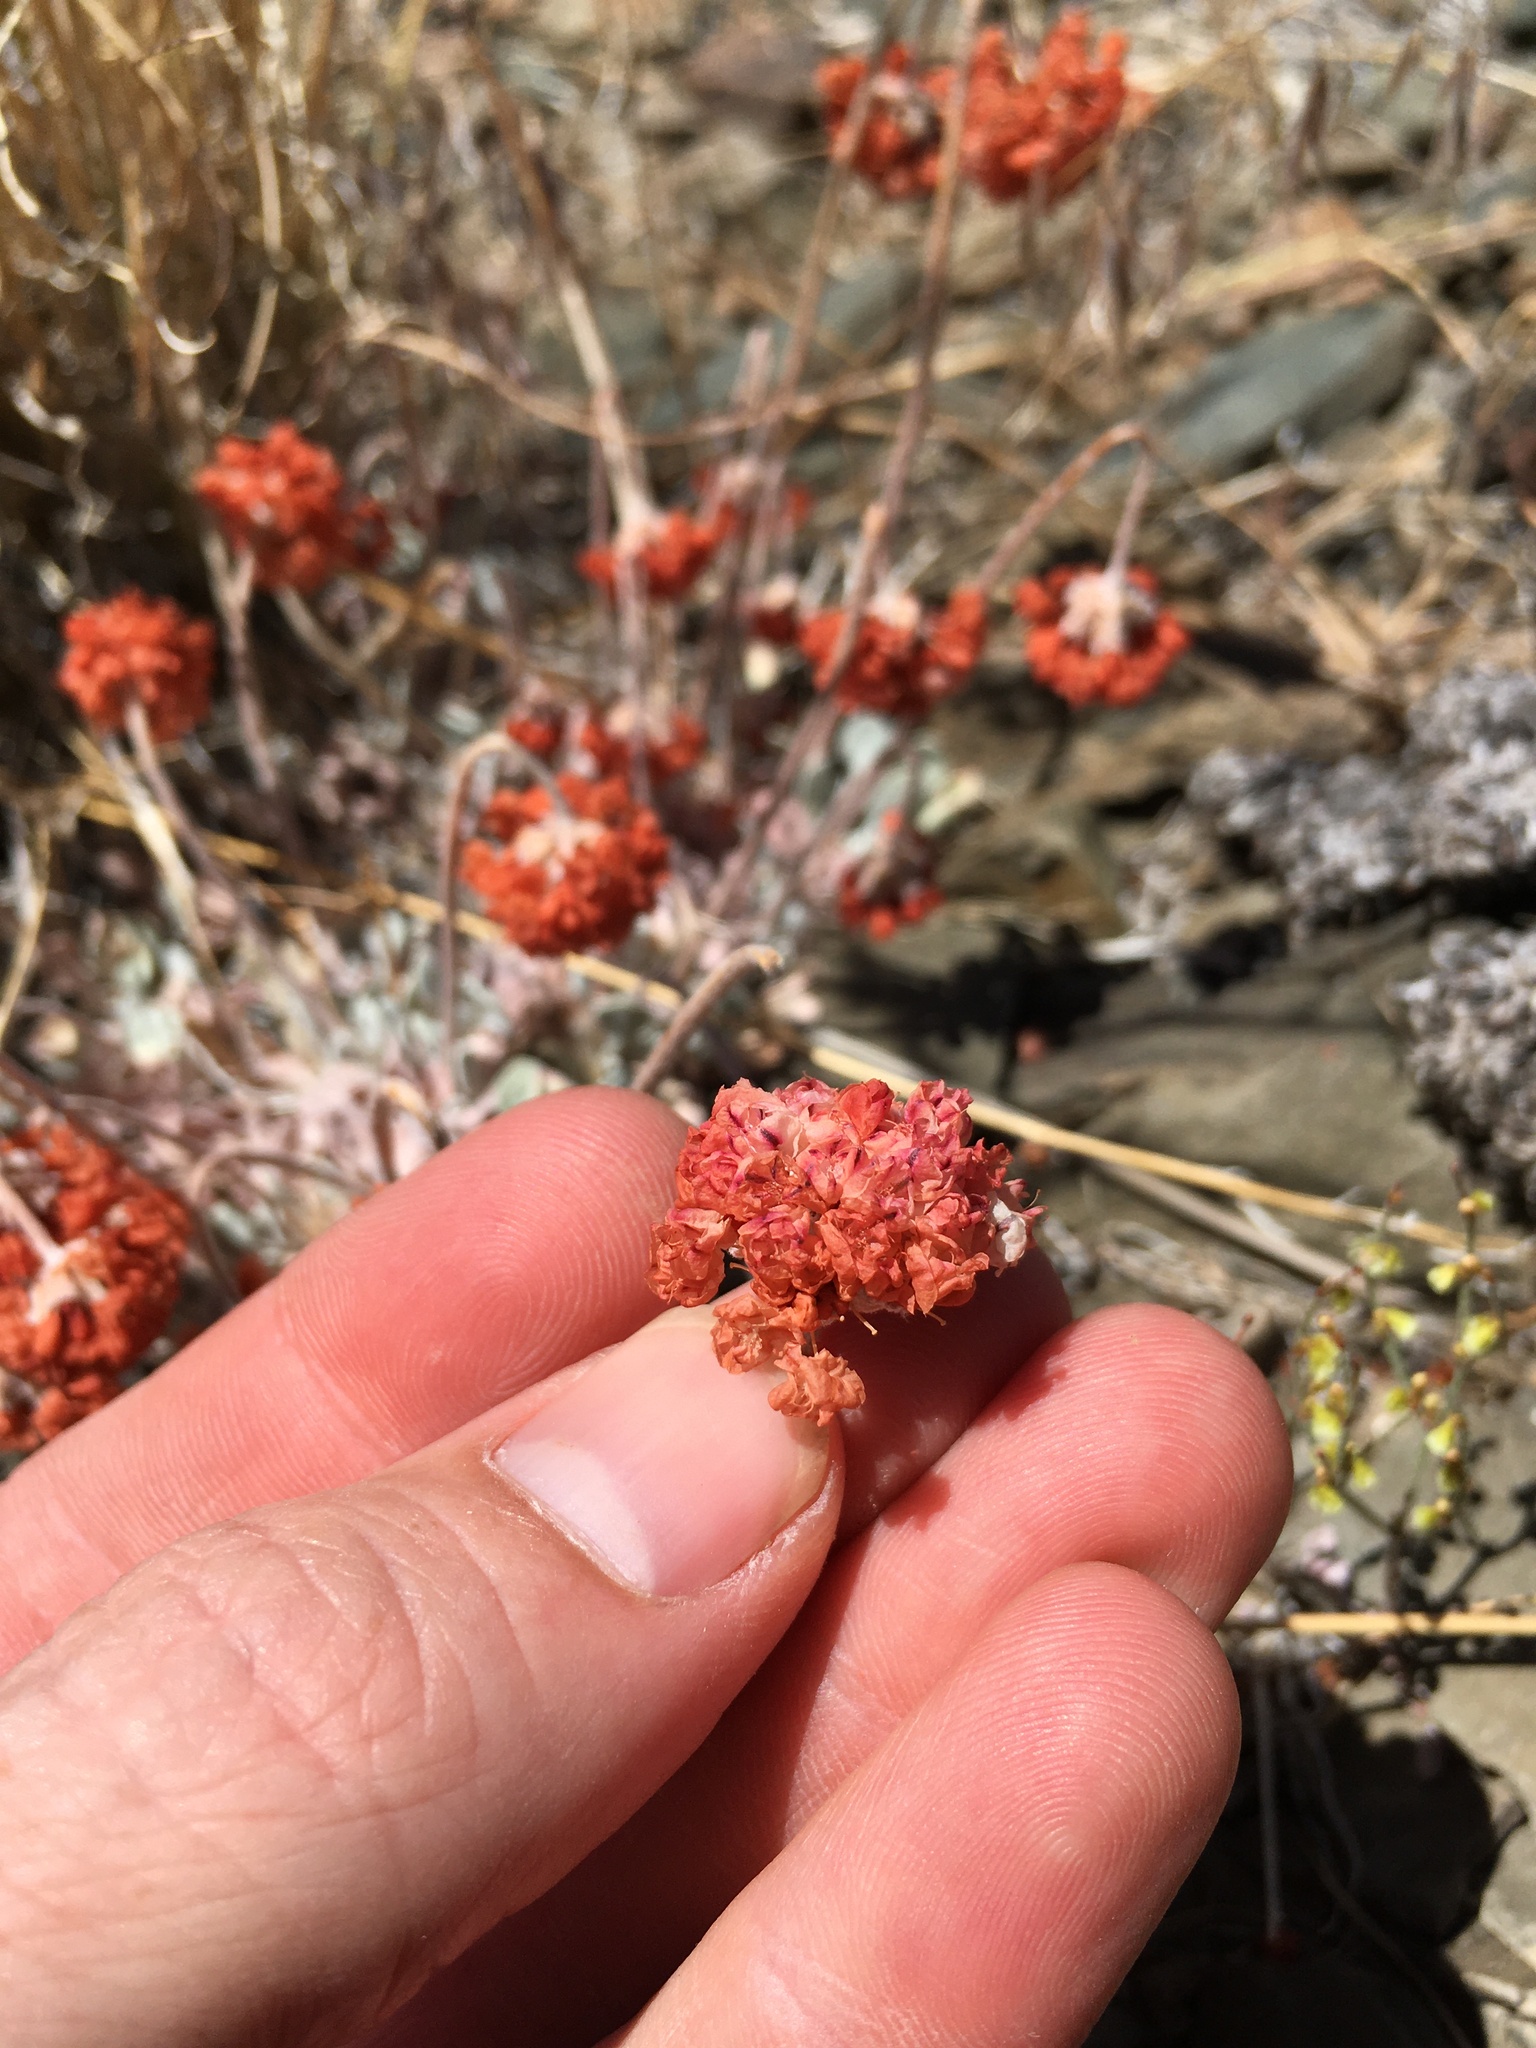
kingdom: Plantae
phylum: Tracheophyta
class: Magnoliopsida
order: Caryophyllales
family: Polygonaceae
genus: Eriogonum
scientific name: Eriogonum ovalifolium
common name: Cushion buckwheat
